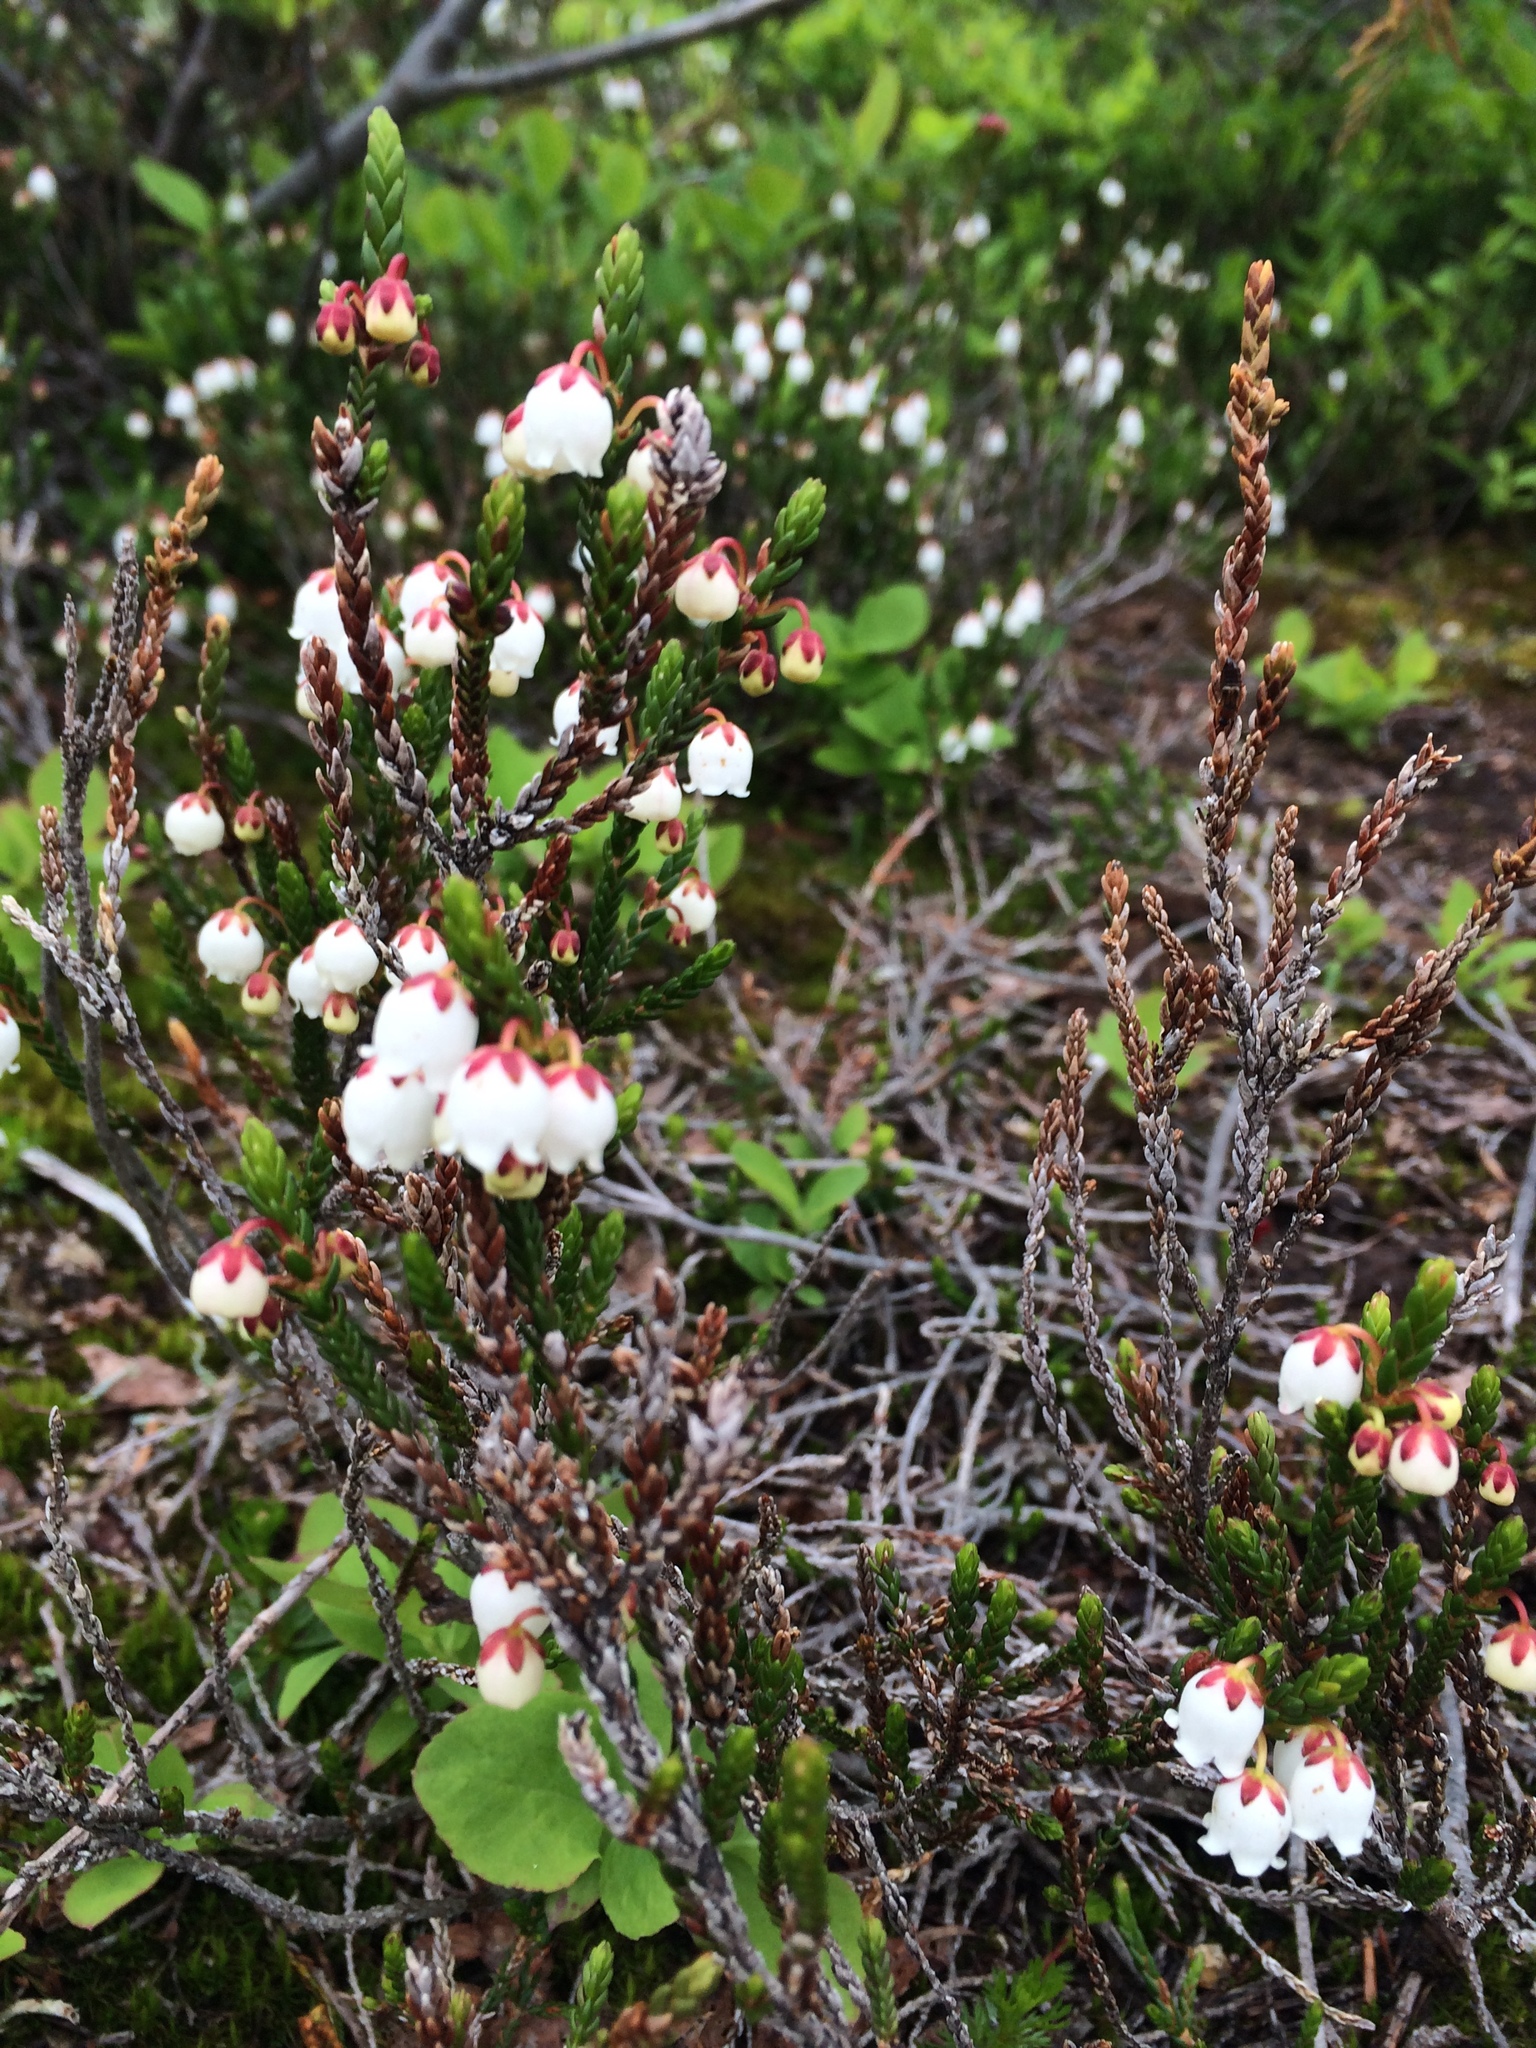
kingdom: Plantae
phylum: Tracheophyta
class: Magnoliopsida
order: Ericales
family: Ericaceae
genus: Cassiope
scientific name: Cassiope mertensiana
